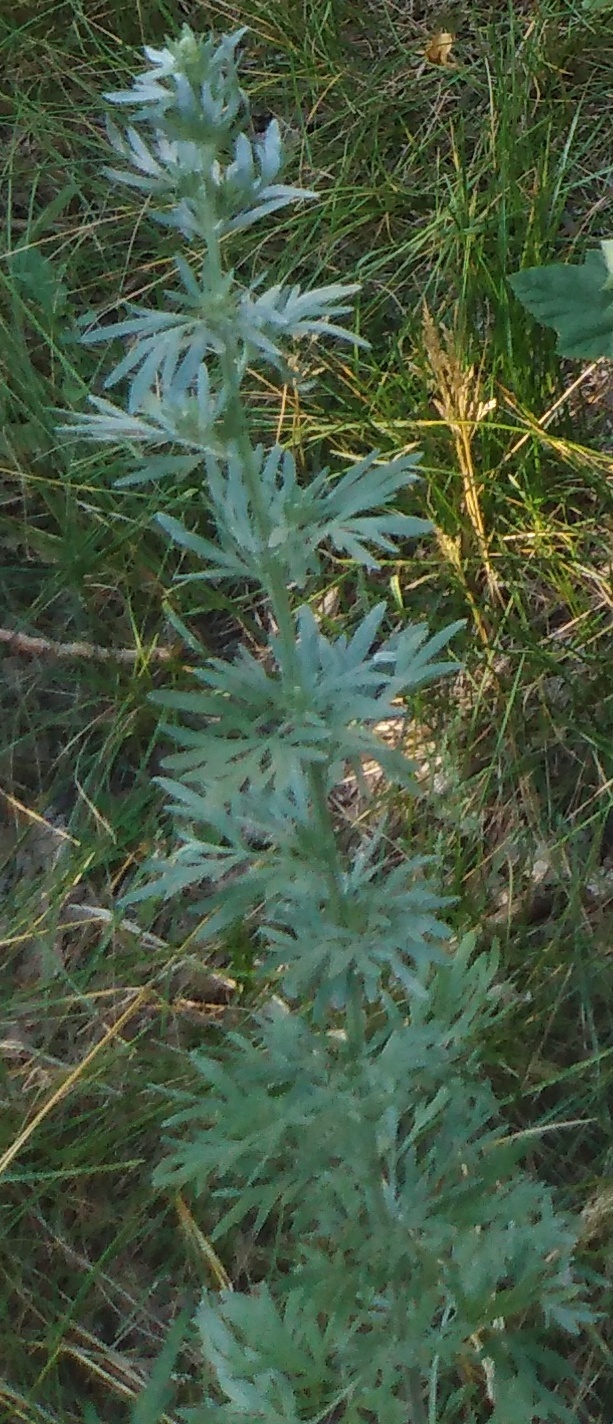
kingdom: Plantae
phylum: Tracheophyta
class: Magnoliopsida
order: Asterales
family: Asteraceae
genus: Artemisia
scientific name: Artemisia vulgaris
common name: Mugwort
